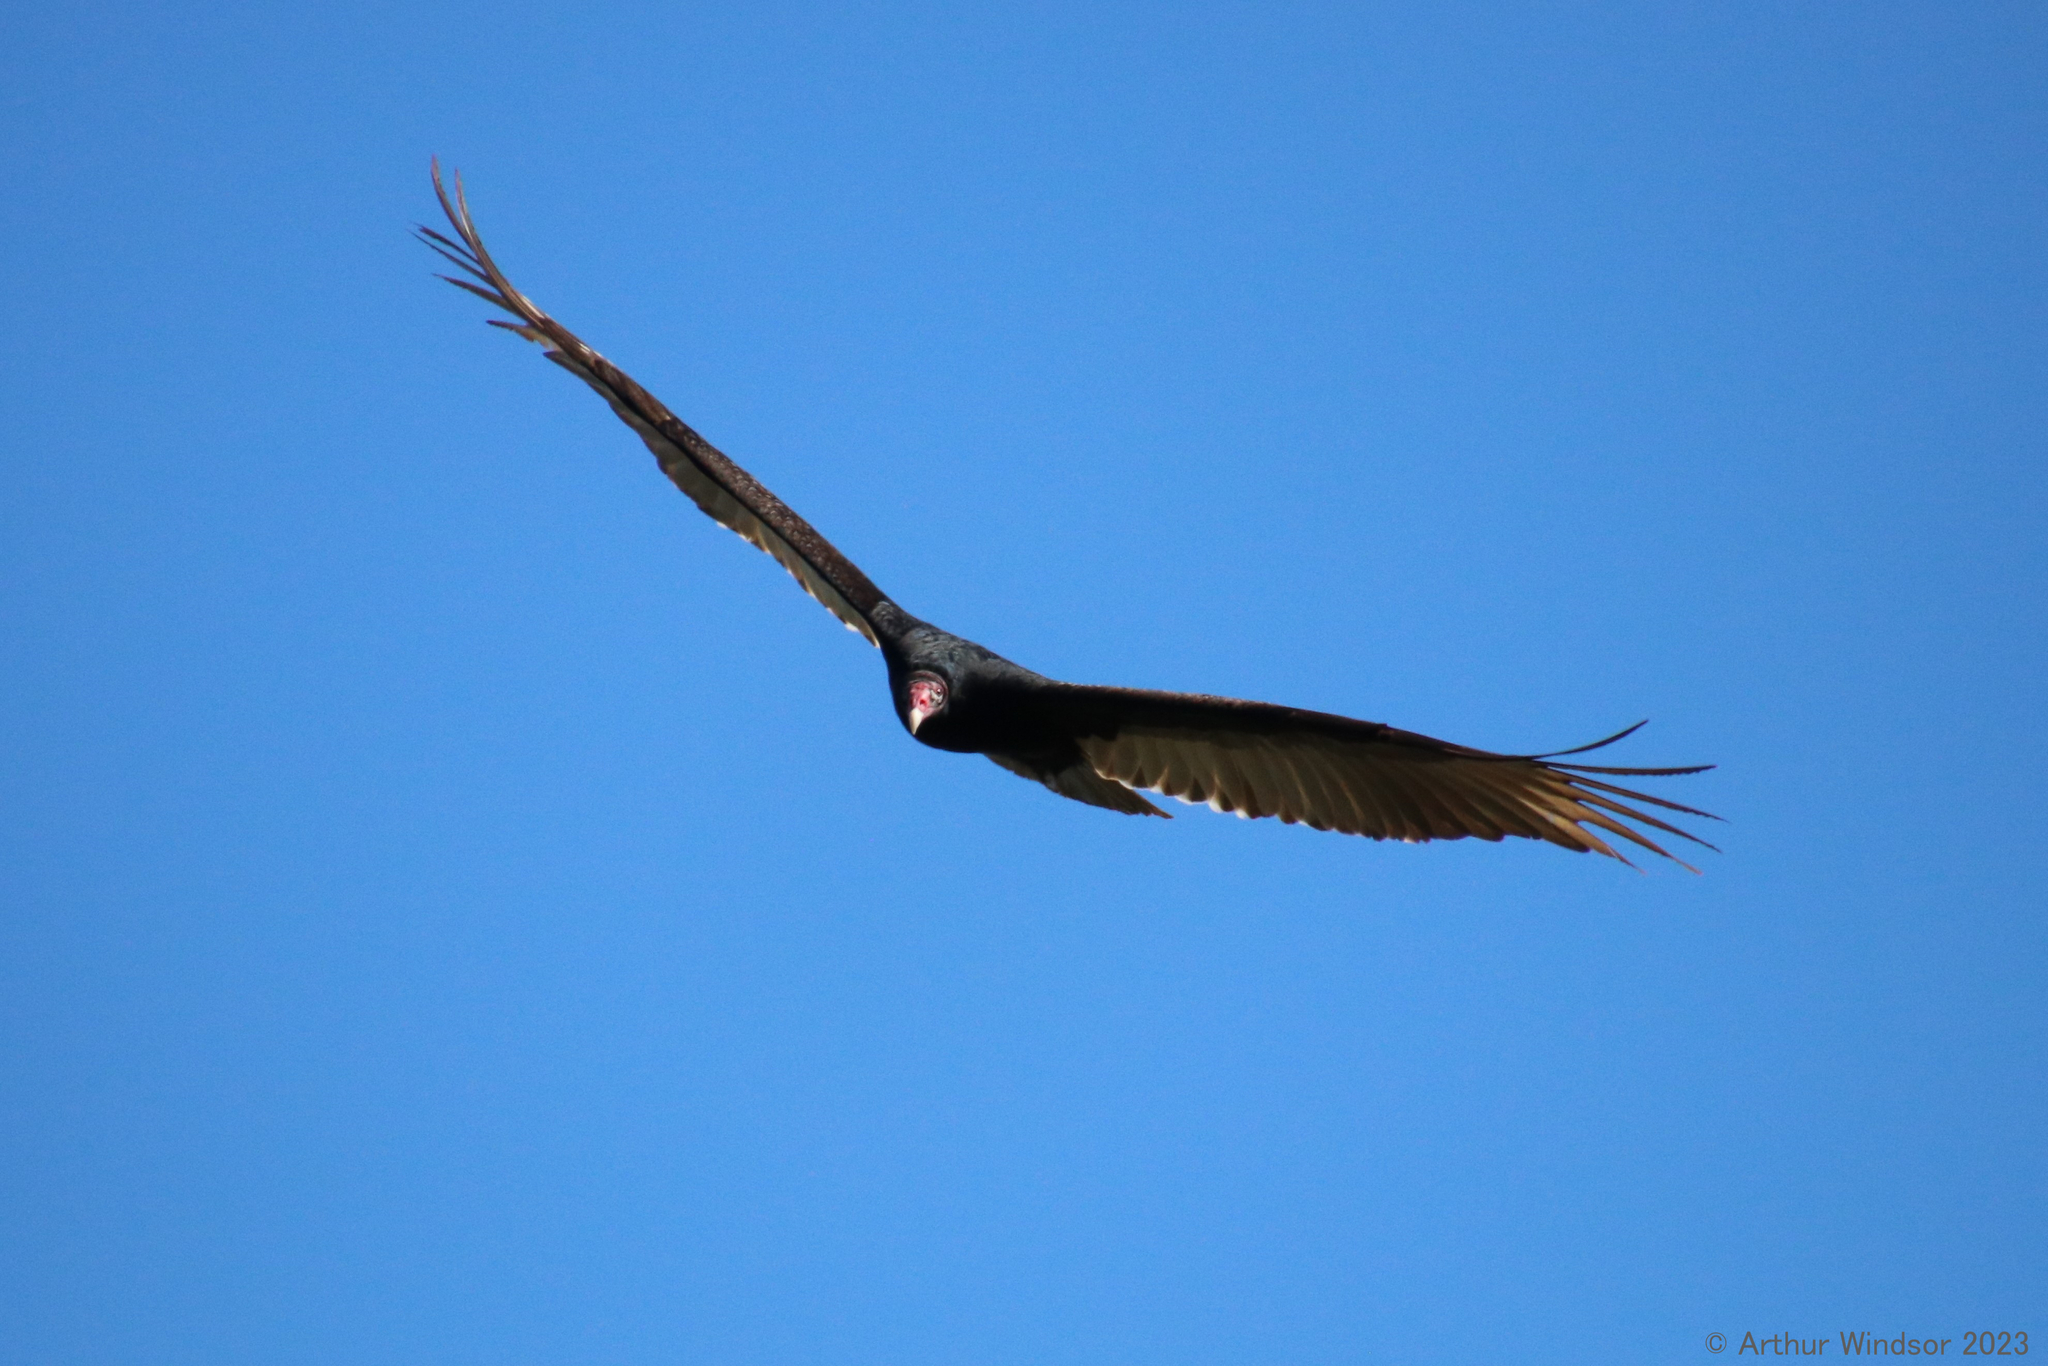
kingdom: Animalia
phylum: Chordata
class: Aves
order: Accipitriformes
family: Cathartidae
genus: Cathartes
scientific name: Cathartes aura
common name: Turkey vulture
